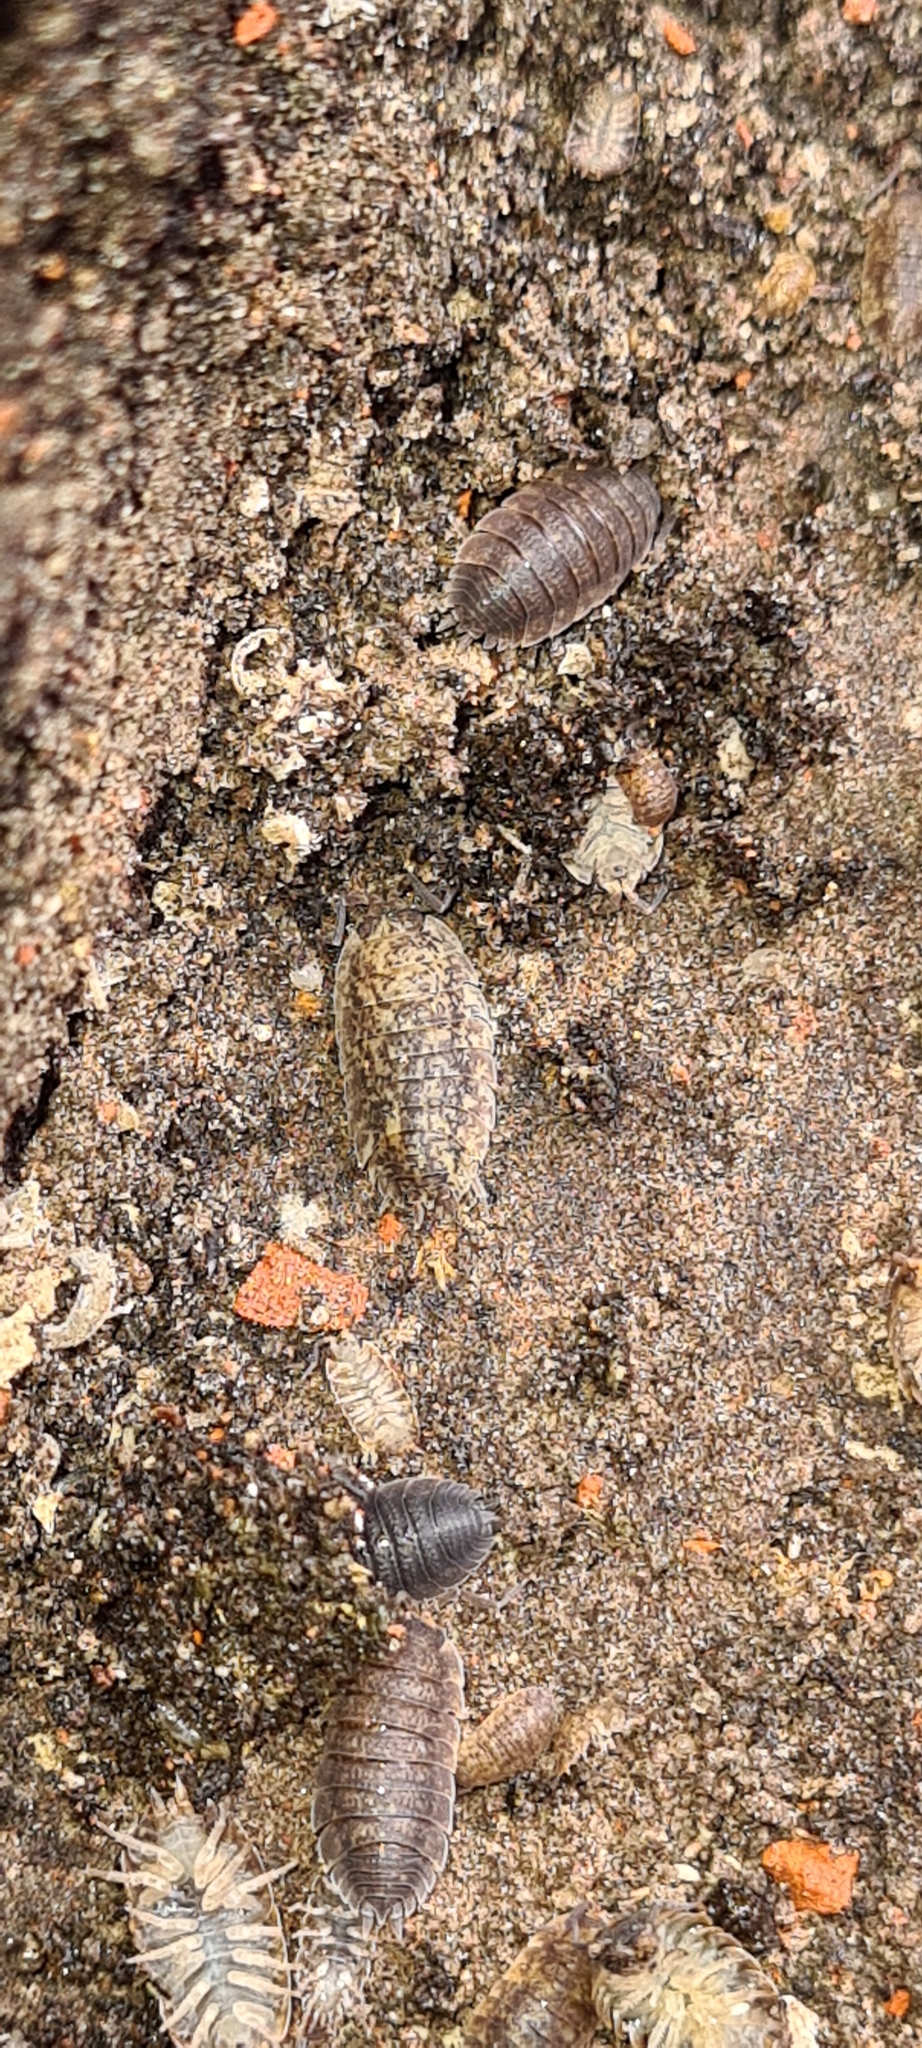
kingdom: Animalia
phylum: Arthropoda
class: Malacostraca
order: Isopoda
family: Porcellionidae
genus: Porcellio
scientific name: Porcellio scaber
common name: Common rough woodlouse
